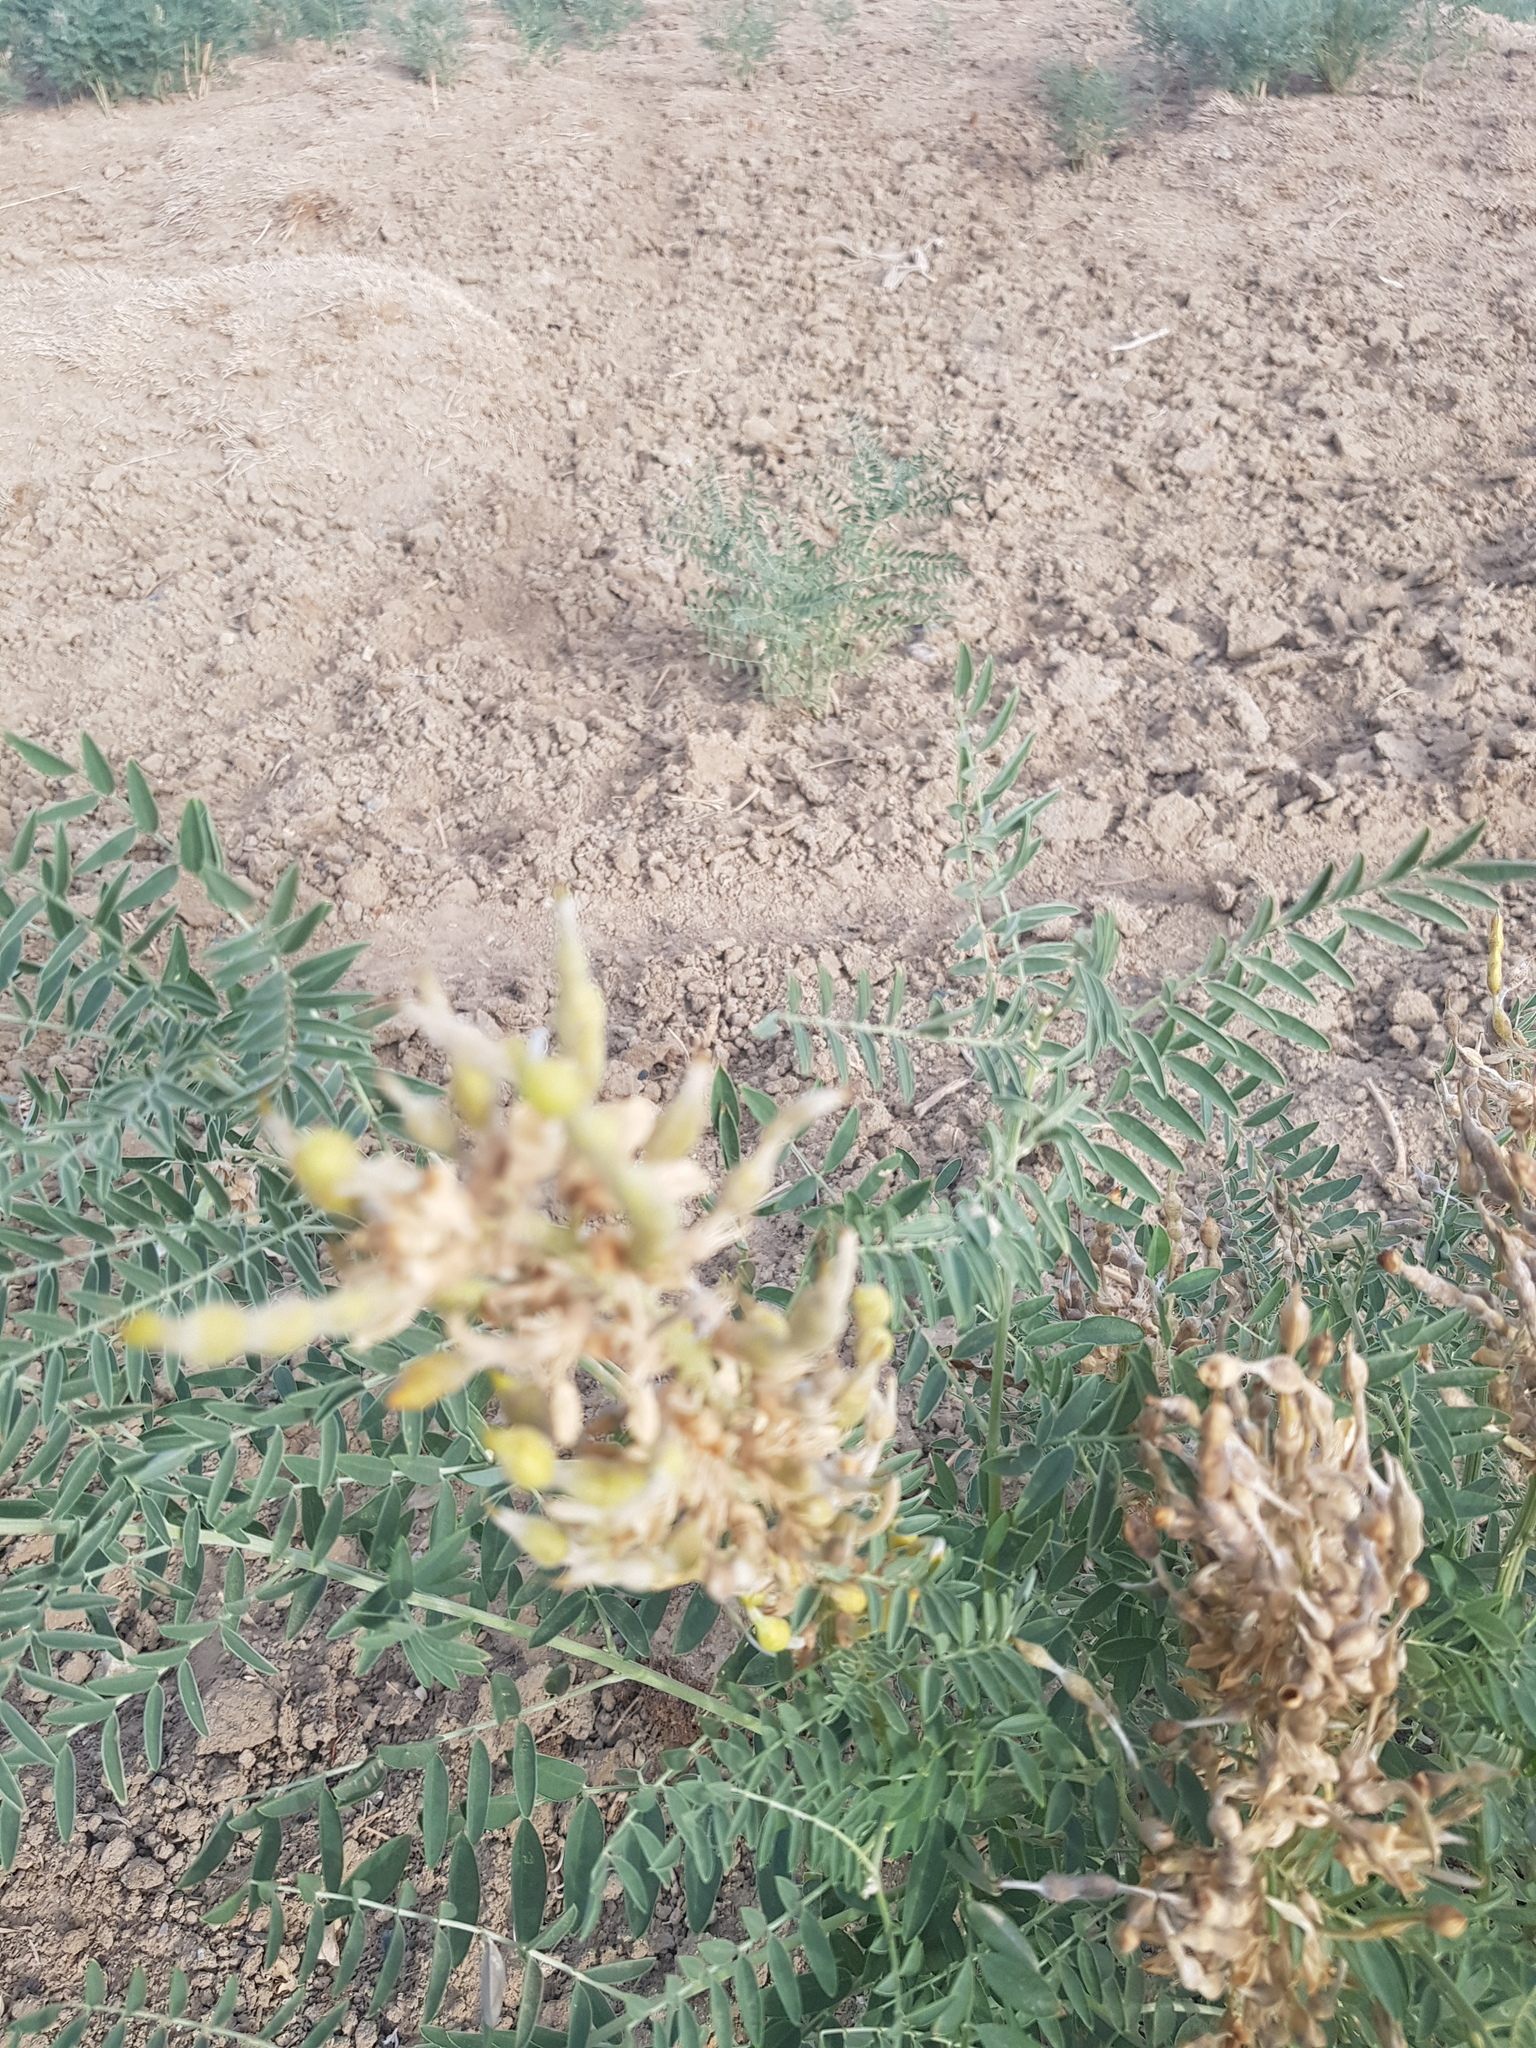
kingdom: Plantae
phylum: Tracheophyta
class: Magnoliopsida
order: Fabales
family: Fabaceae
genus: Sophora
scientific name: Sophora alopecuroides
